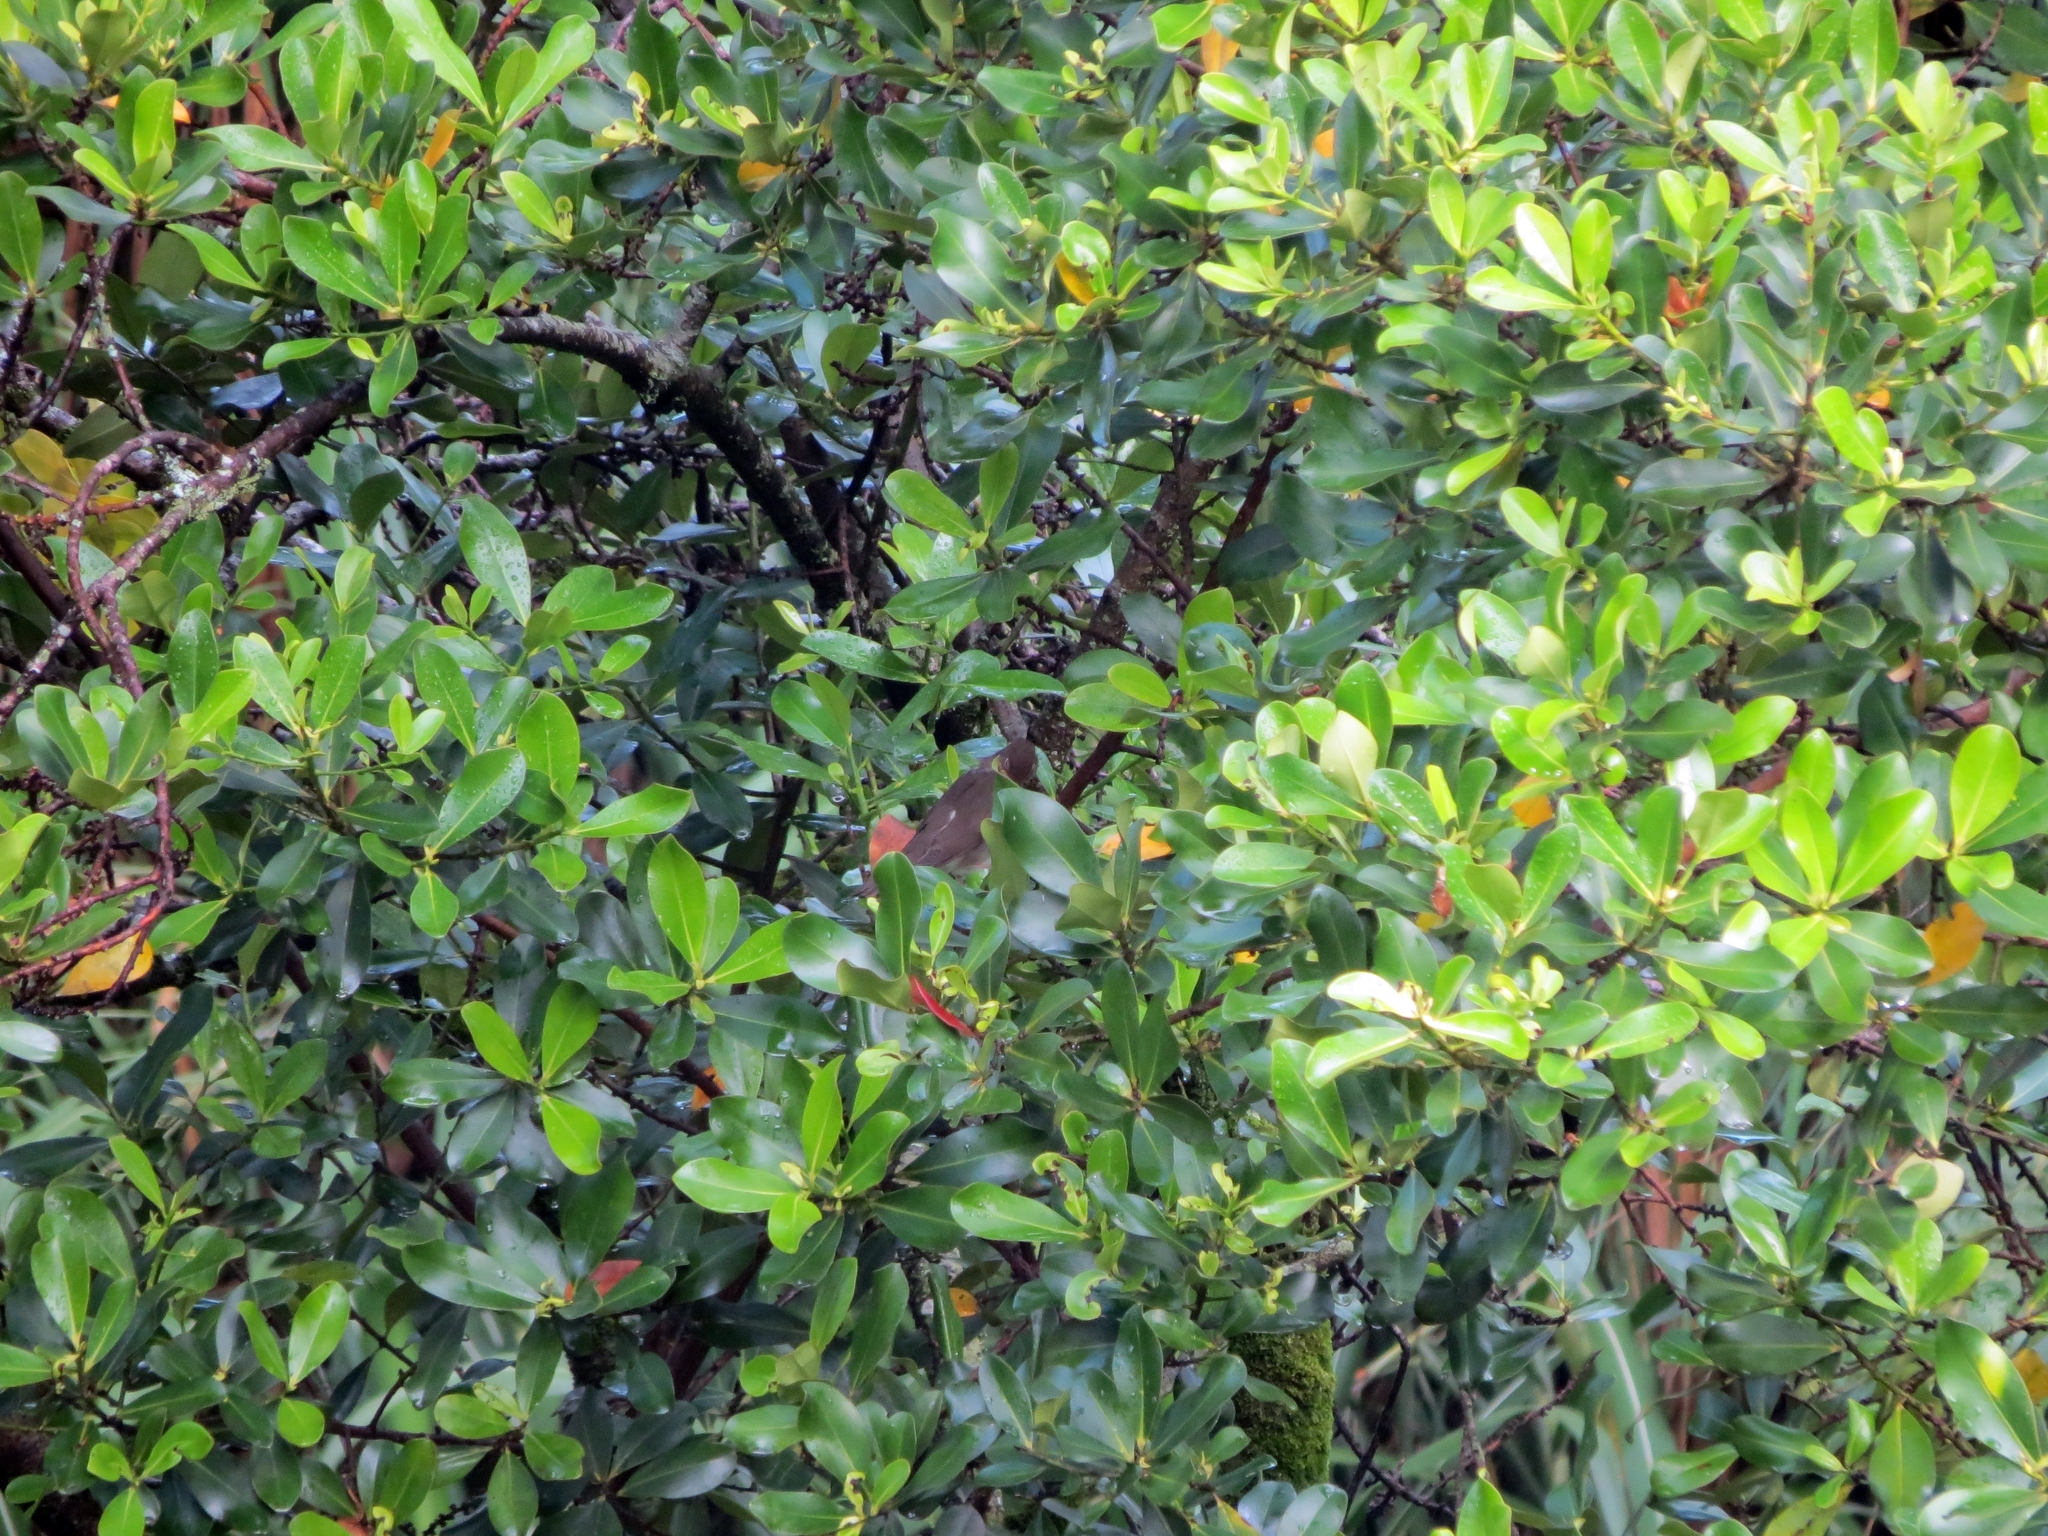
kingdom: Animalia
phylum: Chordata
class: Aves
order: Passeriformes
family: Turdidae
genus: Catharus
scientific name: Catharus ustulatus
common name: Swainson's thrush
